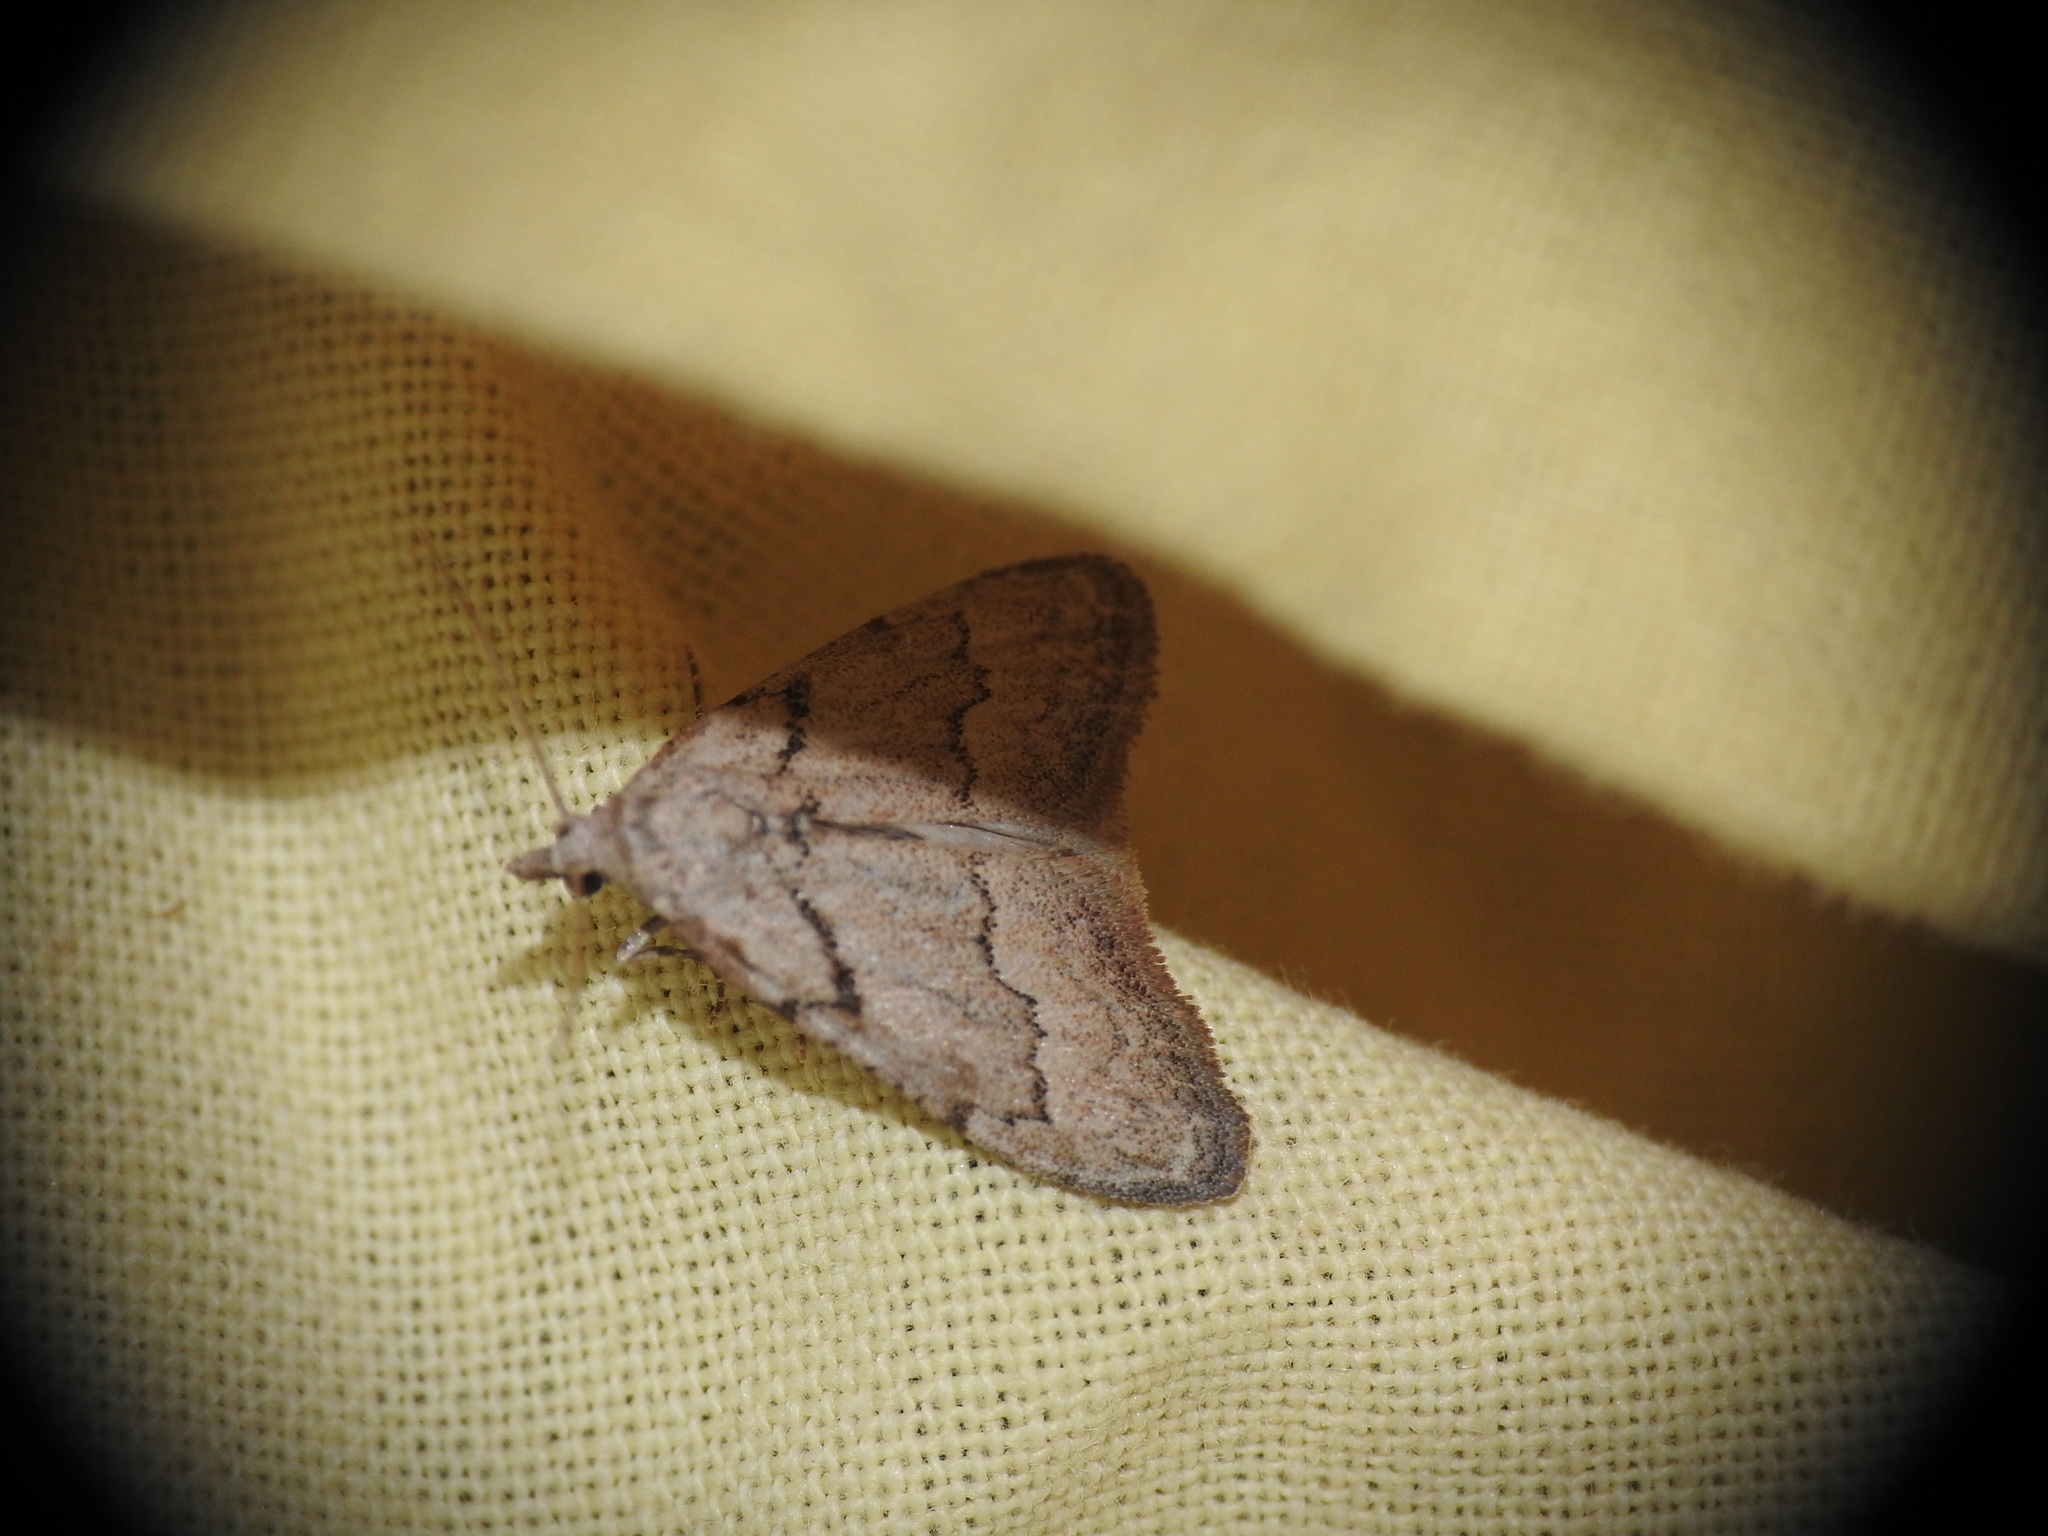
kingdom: Animalia
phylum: Arthropoda
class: Insecta
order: Lepidoptera
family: Nolidae
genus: Nola
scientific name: Nola thymula
